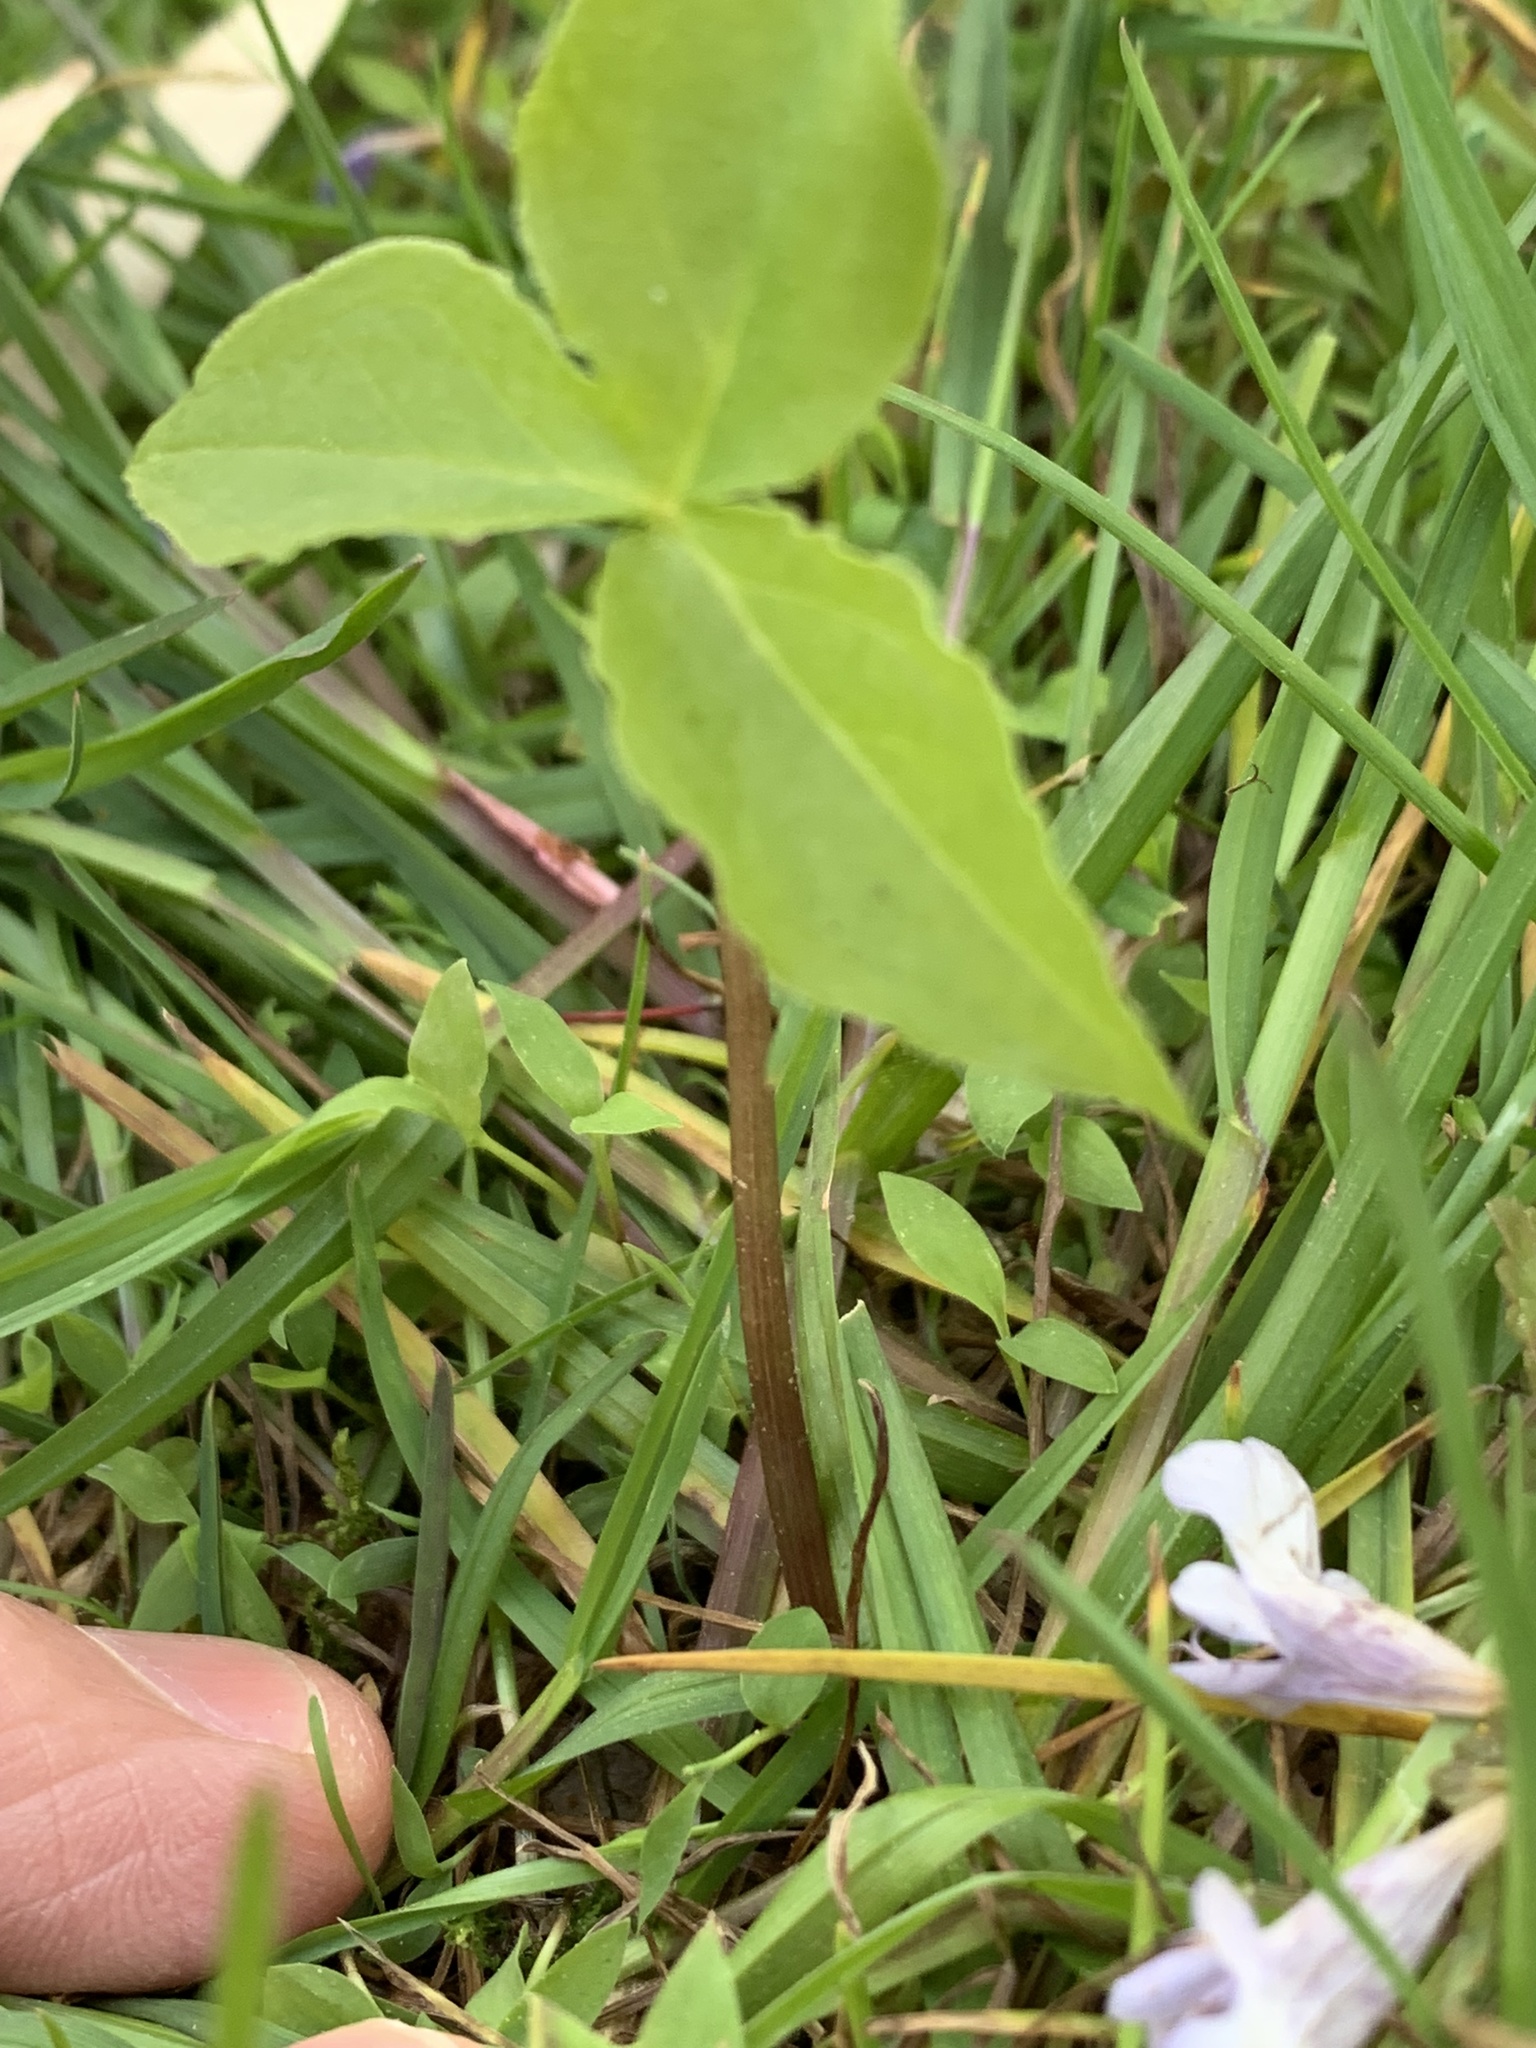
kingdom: Plantae
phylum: Tracheophyta
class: Liliopsida
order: Alismatales
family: Araceae
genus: Arisaema
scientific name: Arisaema triphyllum
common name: Jack-in-the-pulpit
